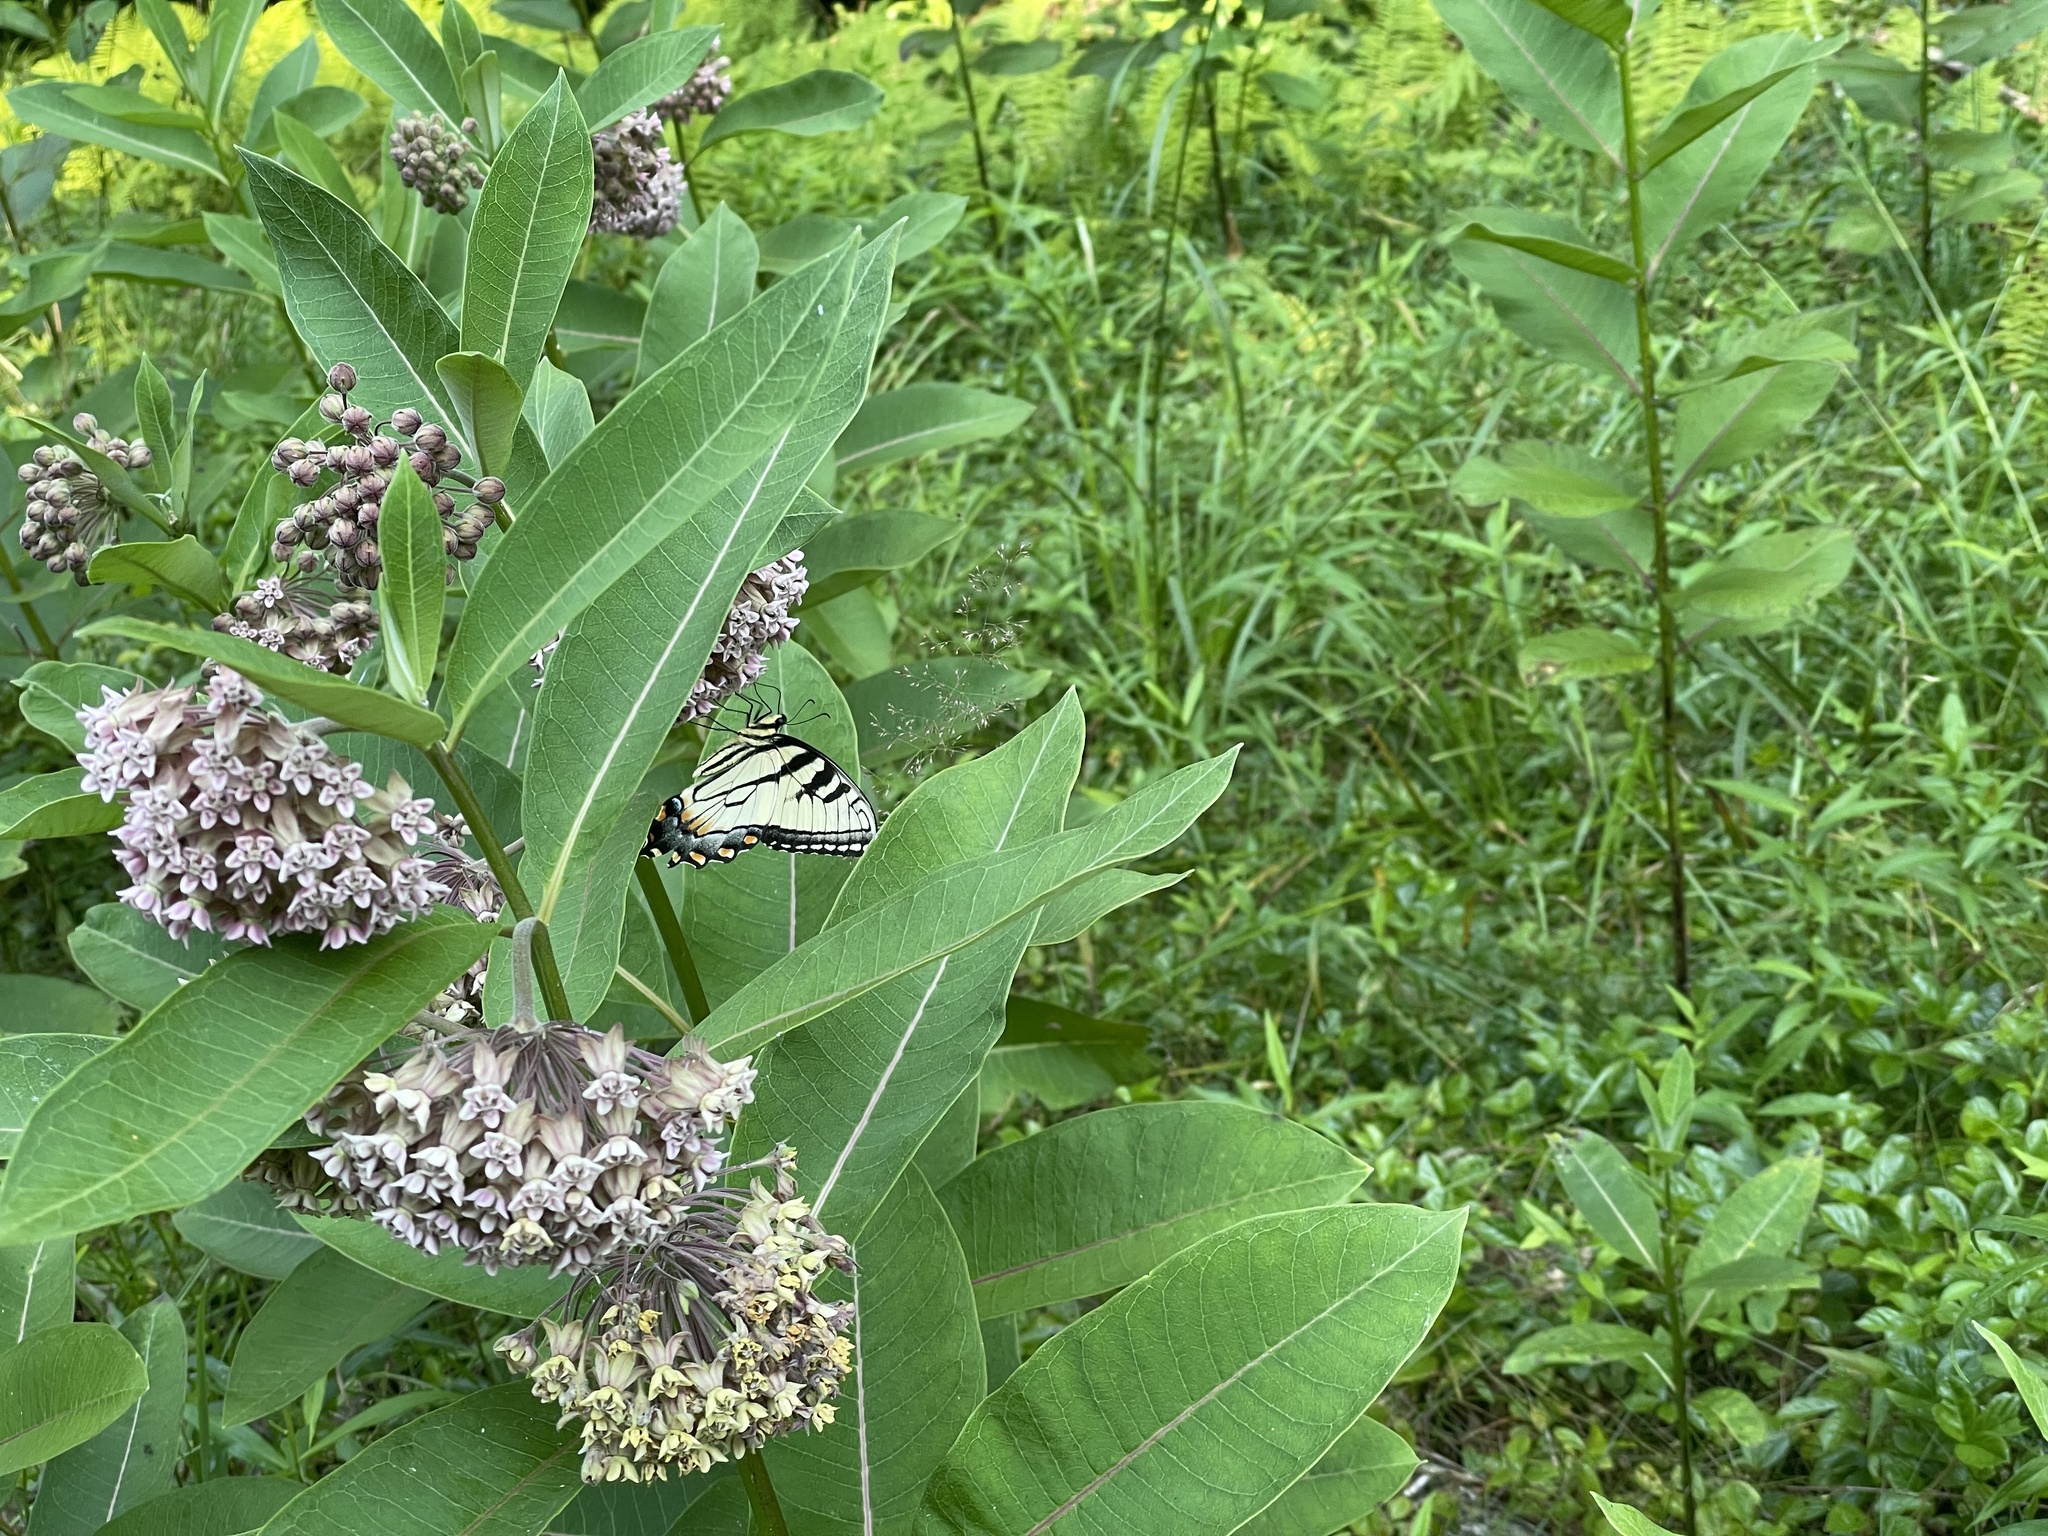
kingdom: Animalia
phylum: Arthropoda
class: Insecta
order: Lepidoptera
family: Papilionidae
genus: Papilio
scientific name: Papilio glaucus
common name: Tiger swallowtail
